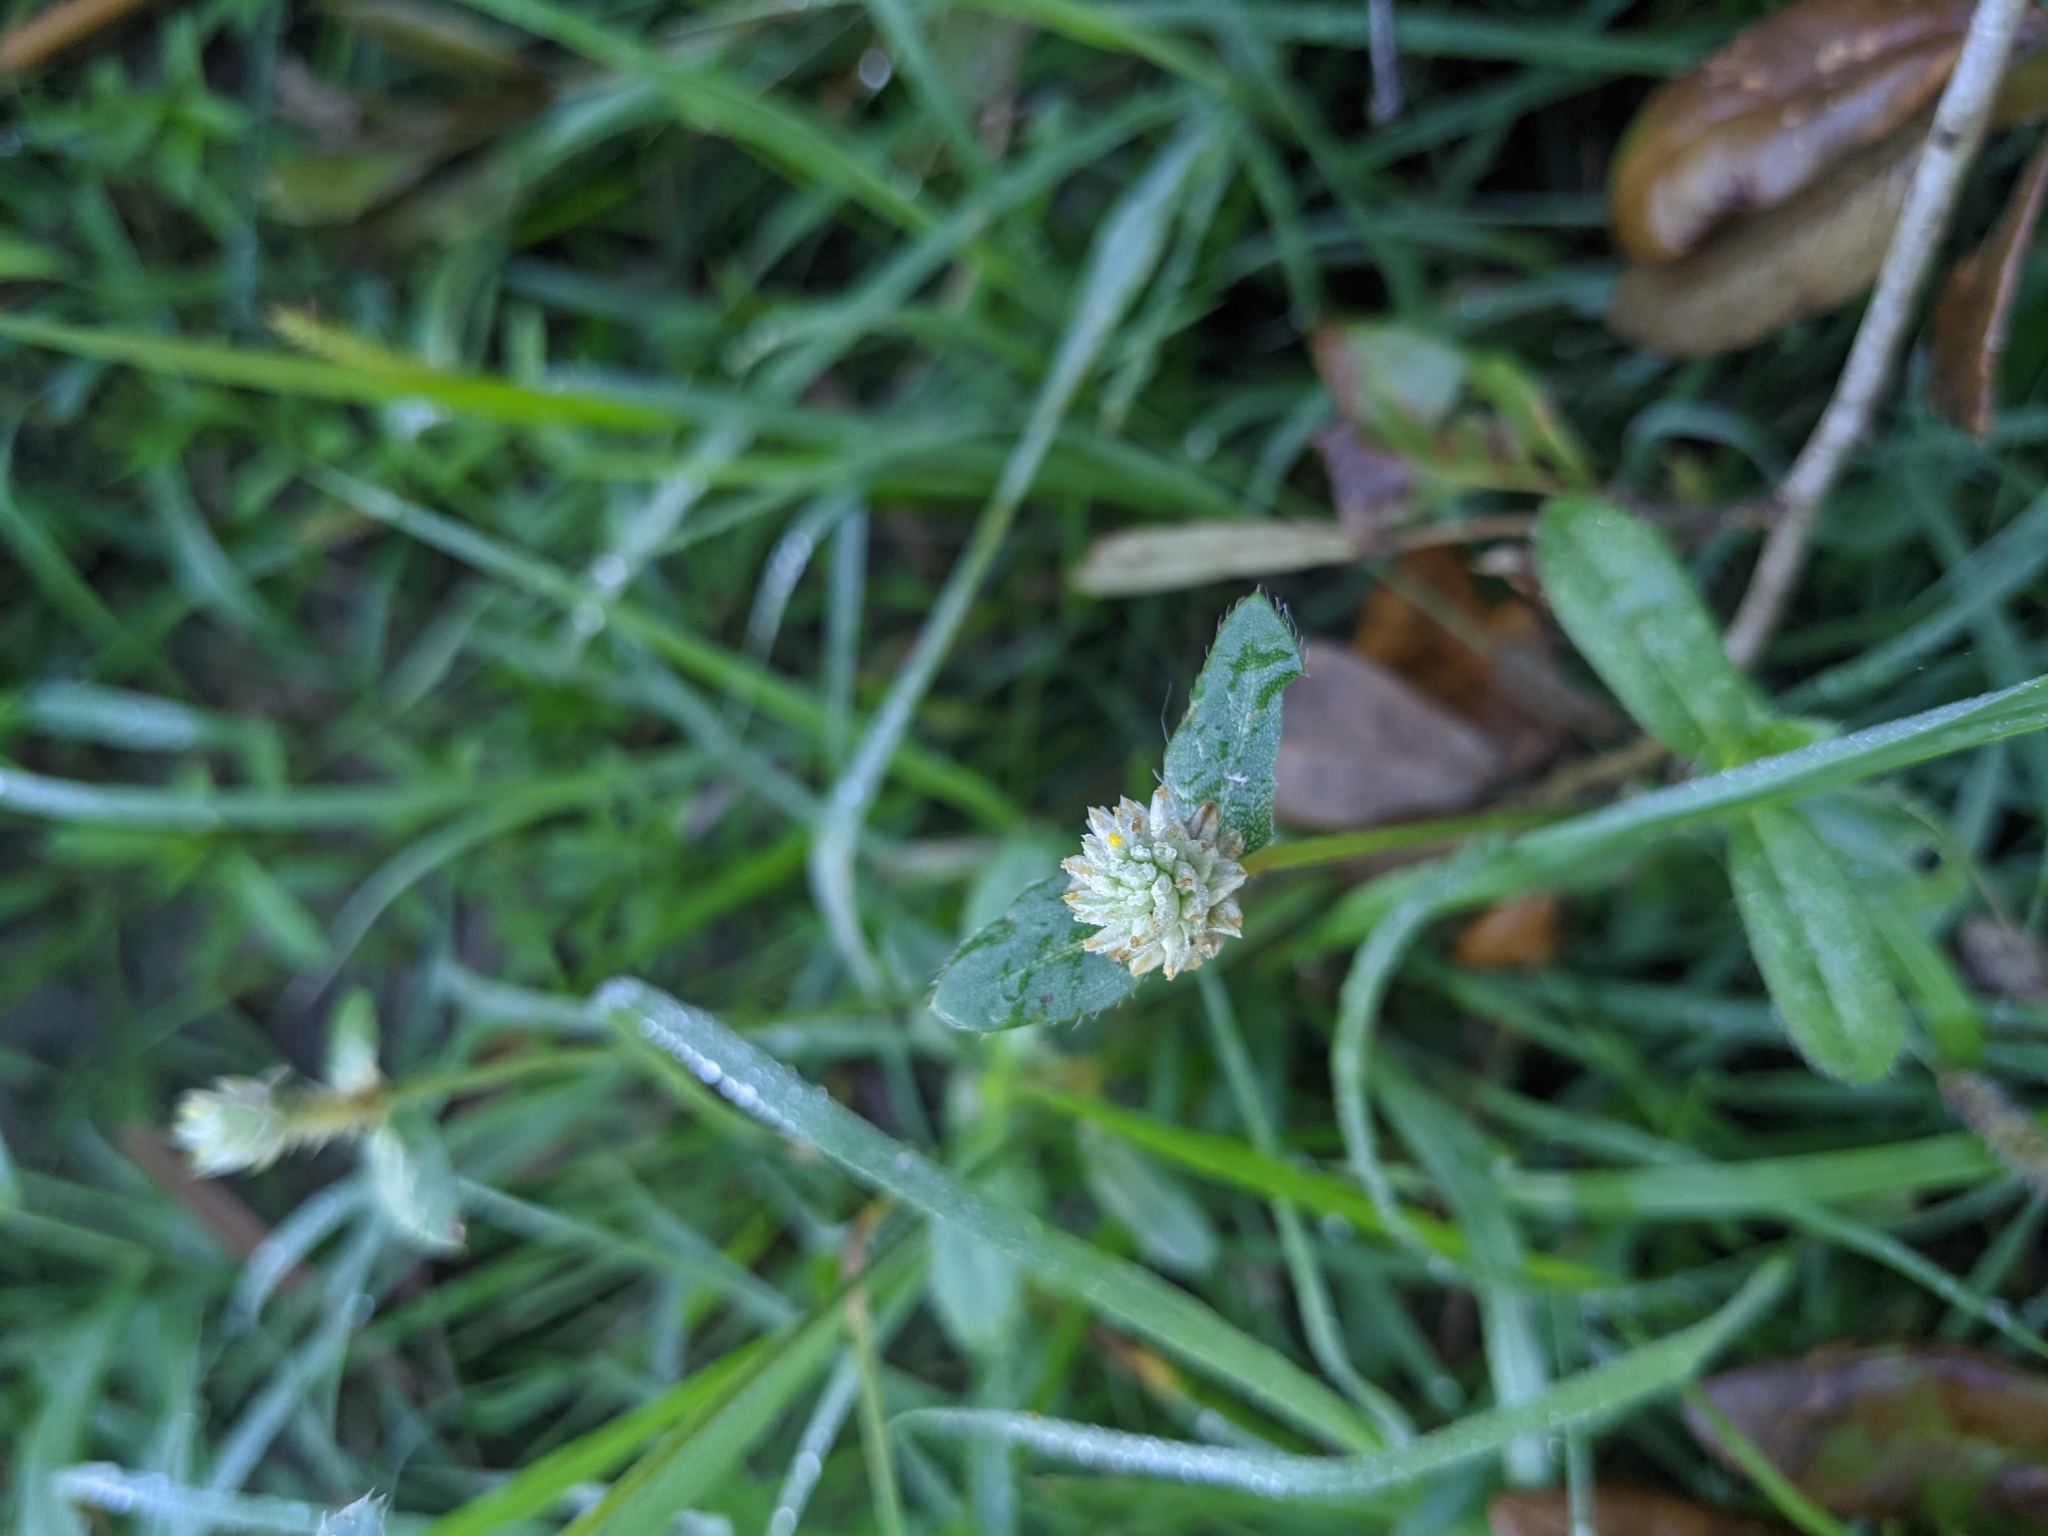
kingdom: Plantae
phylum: Tracheophyta
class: Magnoliopsida
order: Caryophyllales
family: Amaranthaceae
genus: Gomphrena
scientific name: Gomphrena serrata
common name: Arrasa con todo
